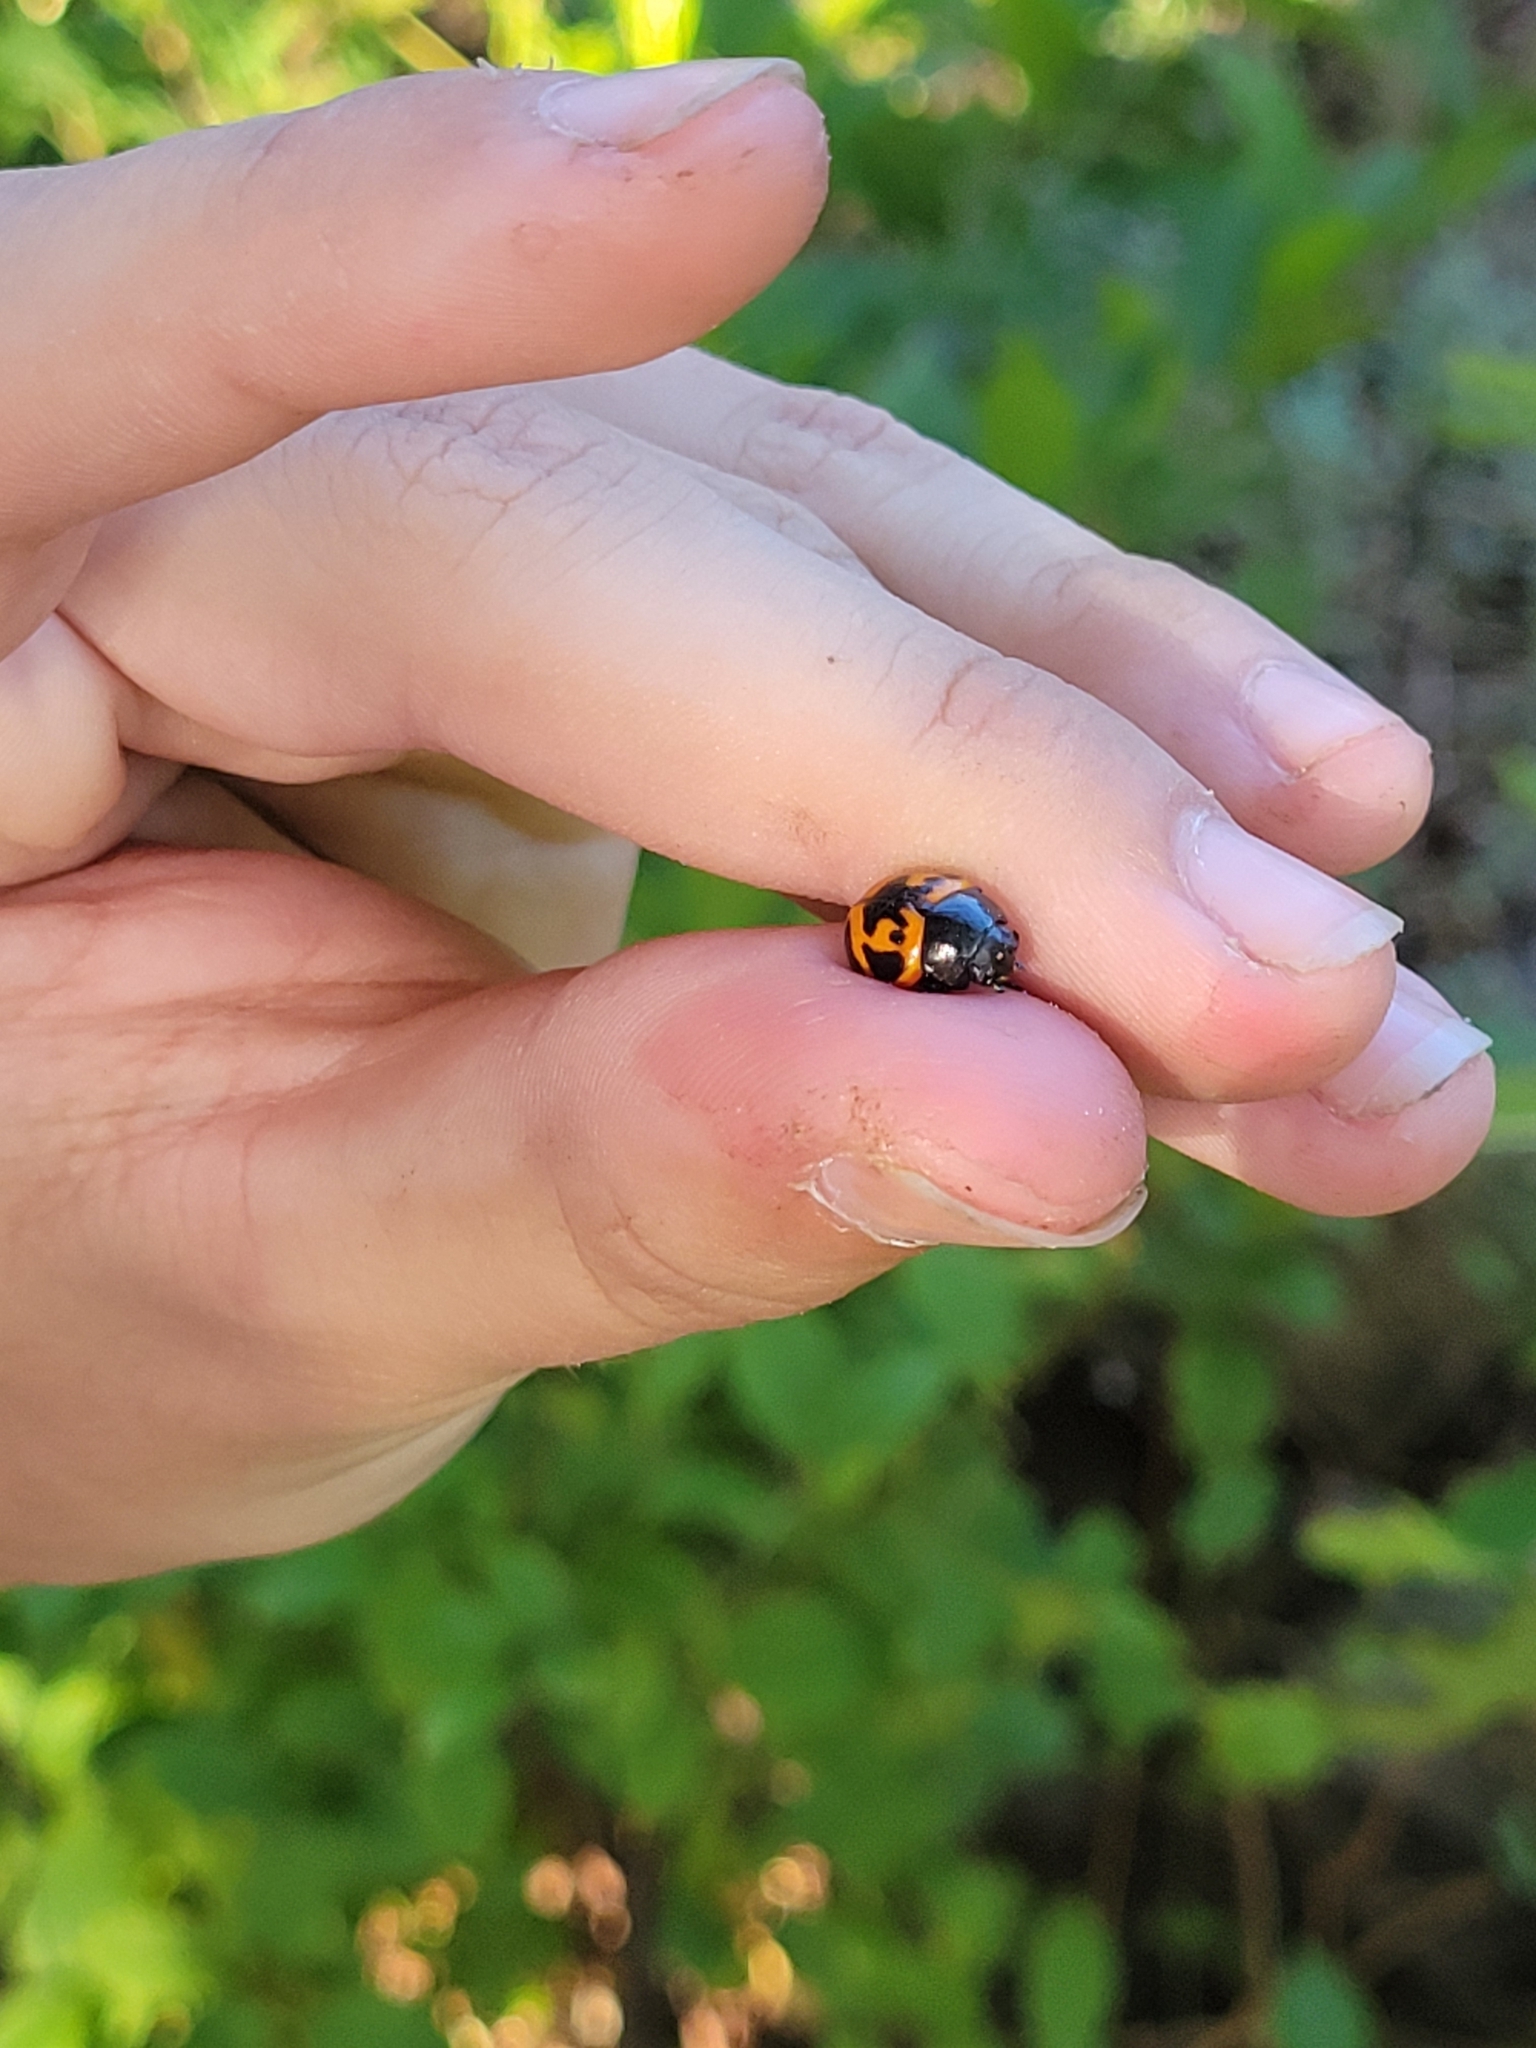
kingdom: Animalia
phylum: Arthropoda
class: Insecta
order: Coleoptera
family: Chrysomelidae
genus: Labidomera
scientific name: Labidomera clivicollis
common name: Swamp milkweed leaf beetle
